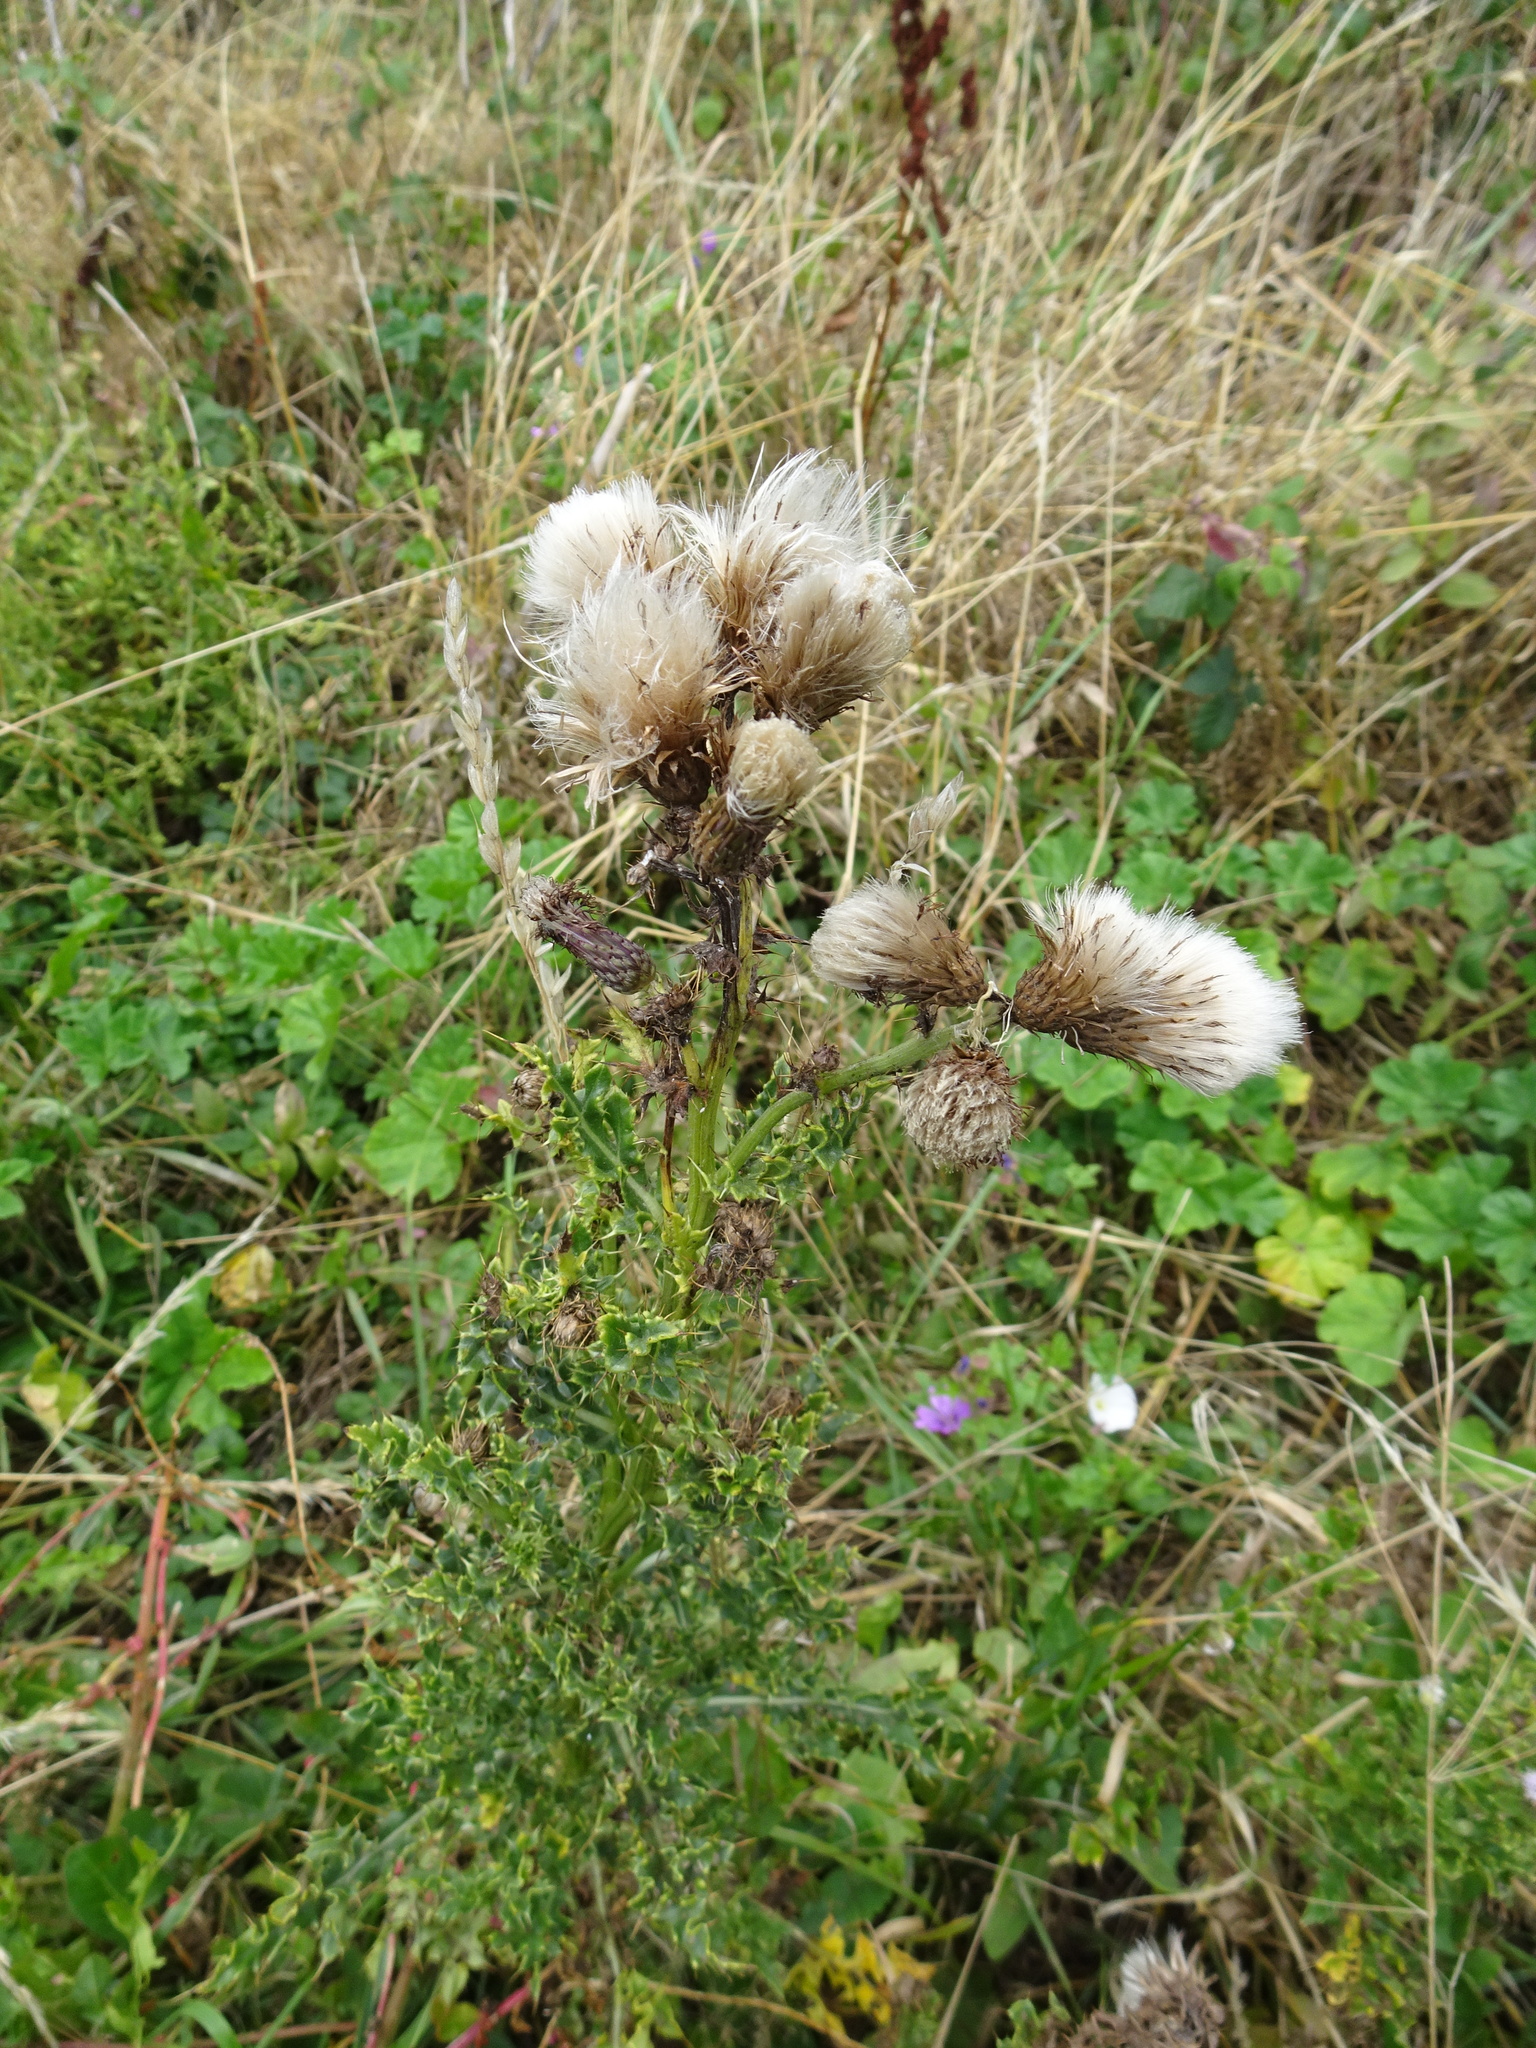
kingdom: Plantae
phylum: Tracheophyta
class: Magnoliopsida
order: Asterales
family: Asteraceae
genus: Cirsium
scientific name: Cirsium arvense
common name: Creeping thistle
